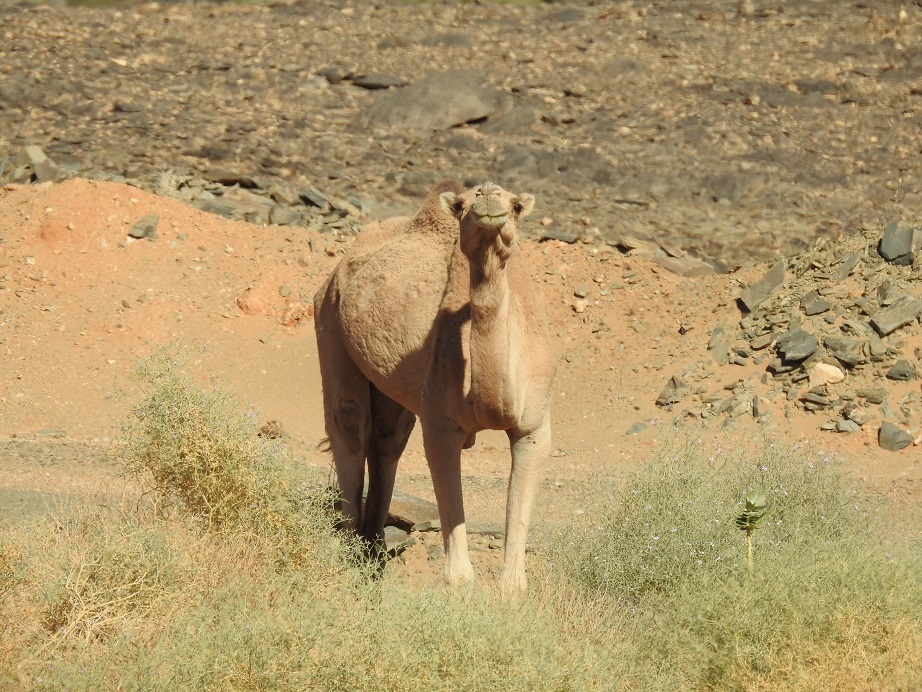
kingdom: Animalia
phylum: Chordata
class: Mammalia
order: Artiodactyla
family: Camelidae
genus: Camelus
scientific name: Camelus dromedarius
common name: One-humped camel
